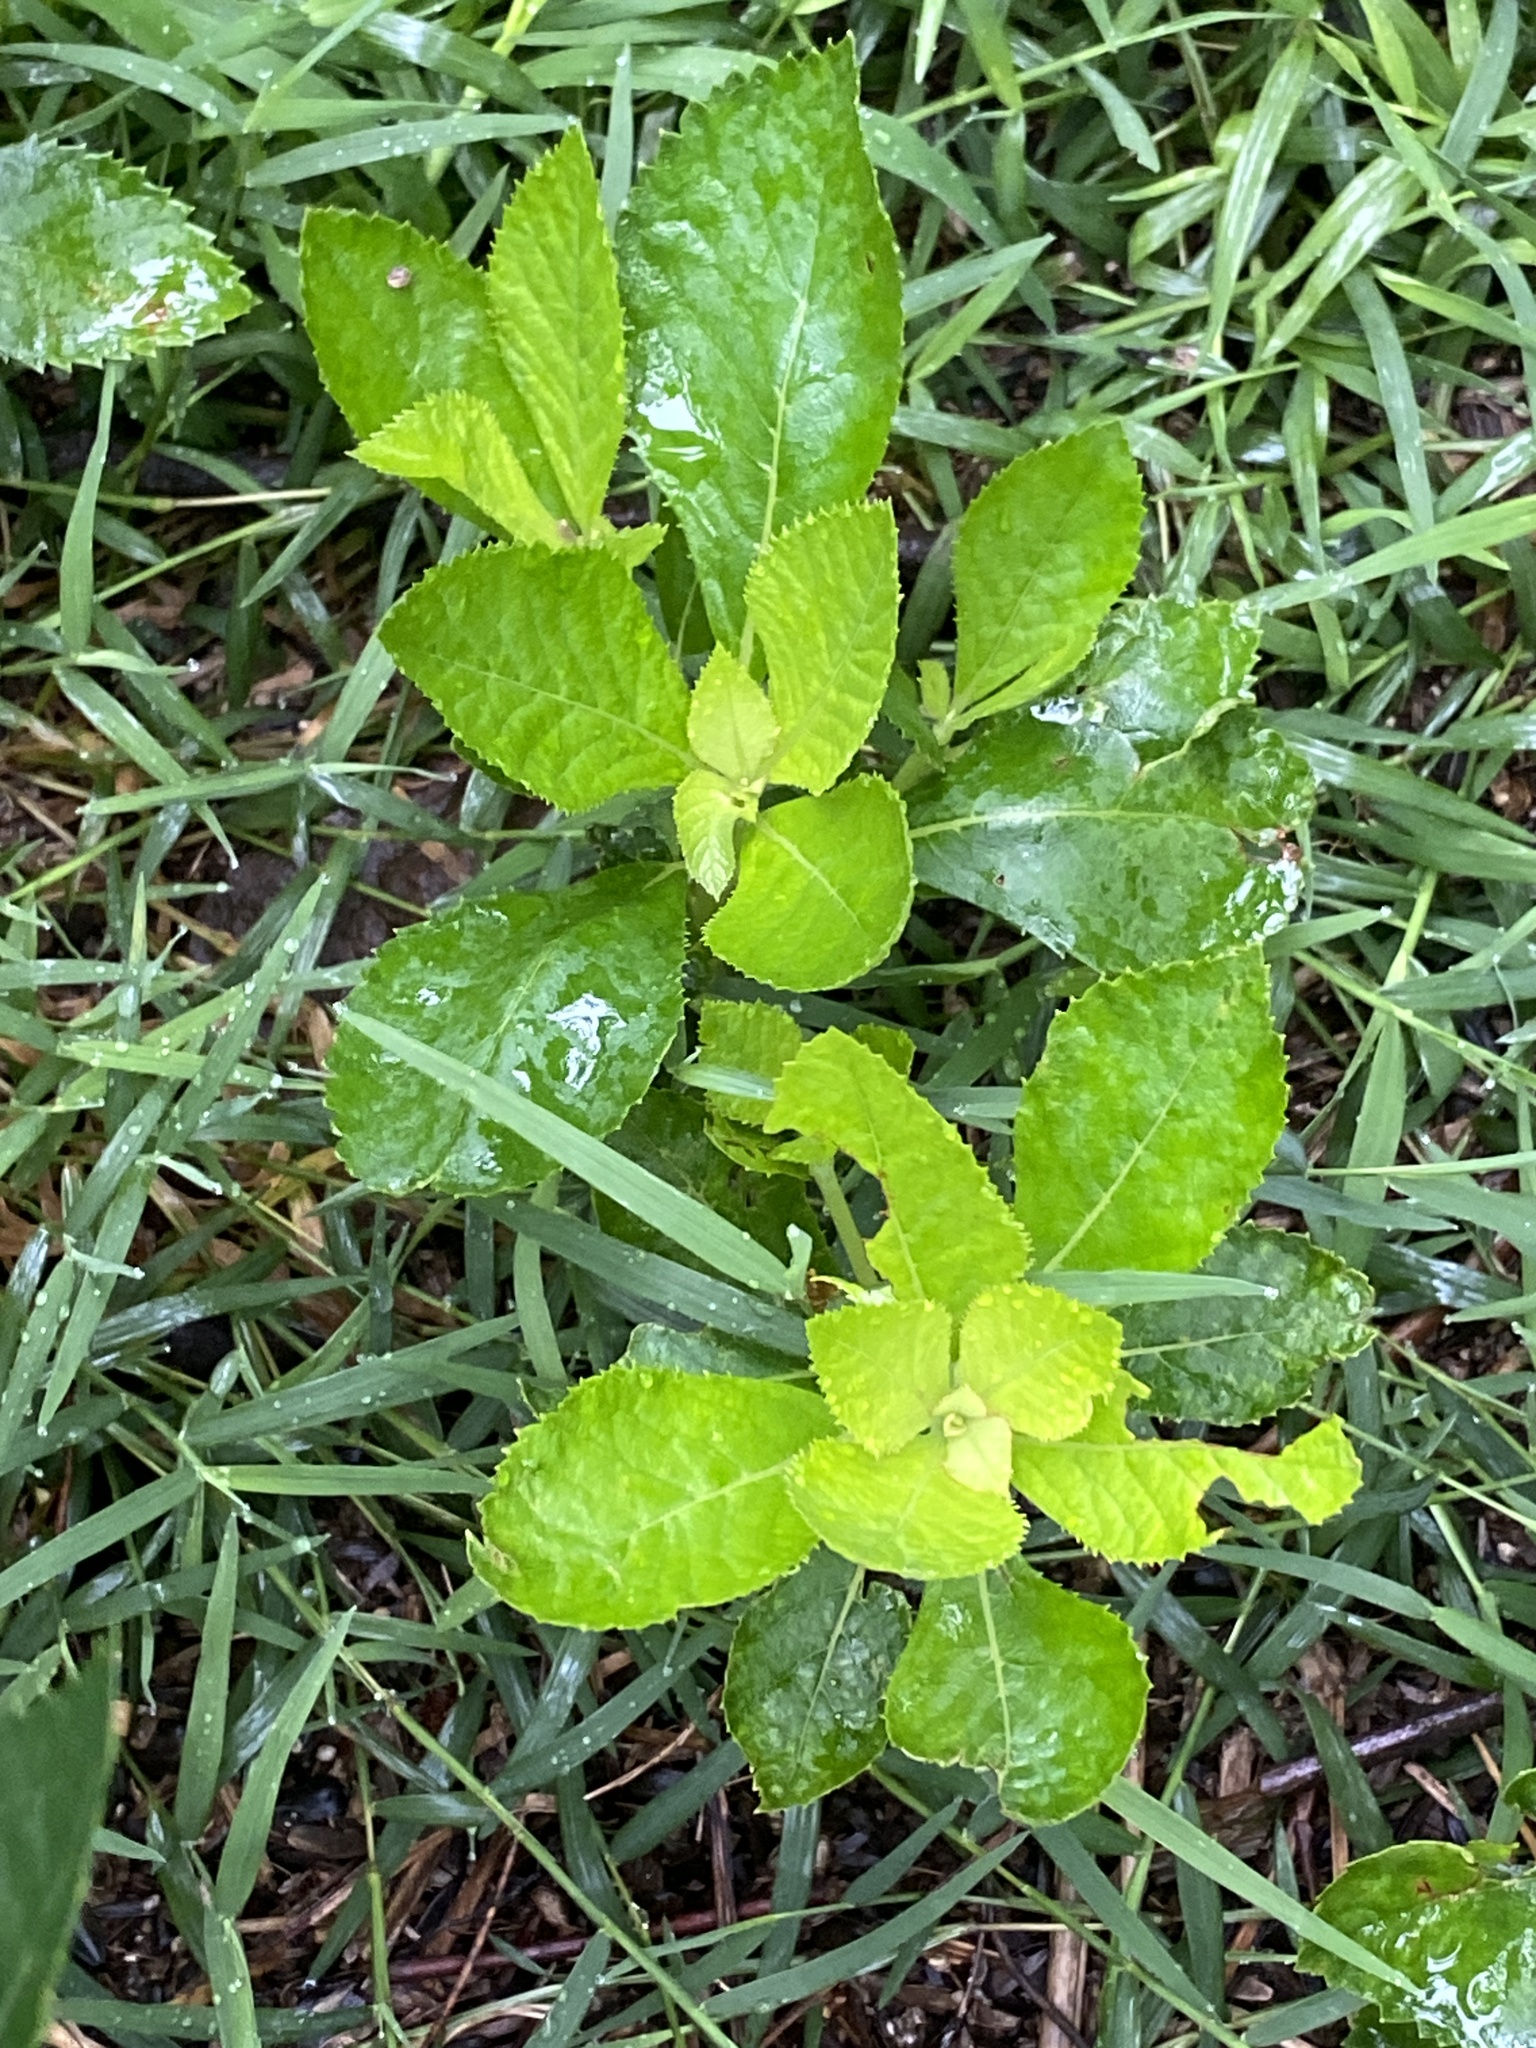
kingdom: Plantae
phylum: Tracheophyta
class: Magnoliopsida
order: Ericales
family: Clethraceae
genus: Clethra
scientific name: Clethra alnifolia
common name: Sweet pepperbush
